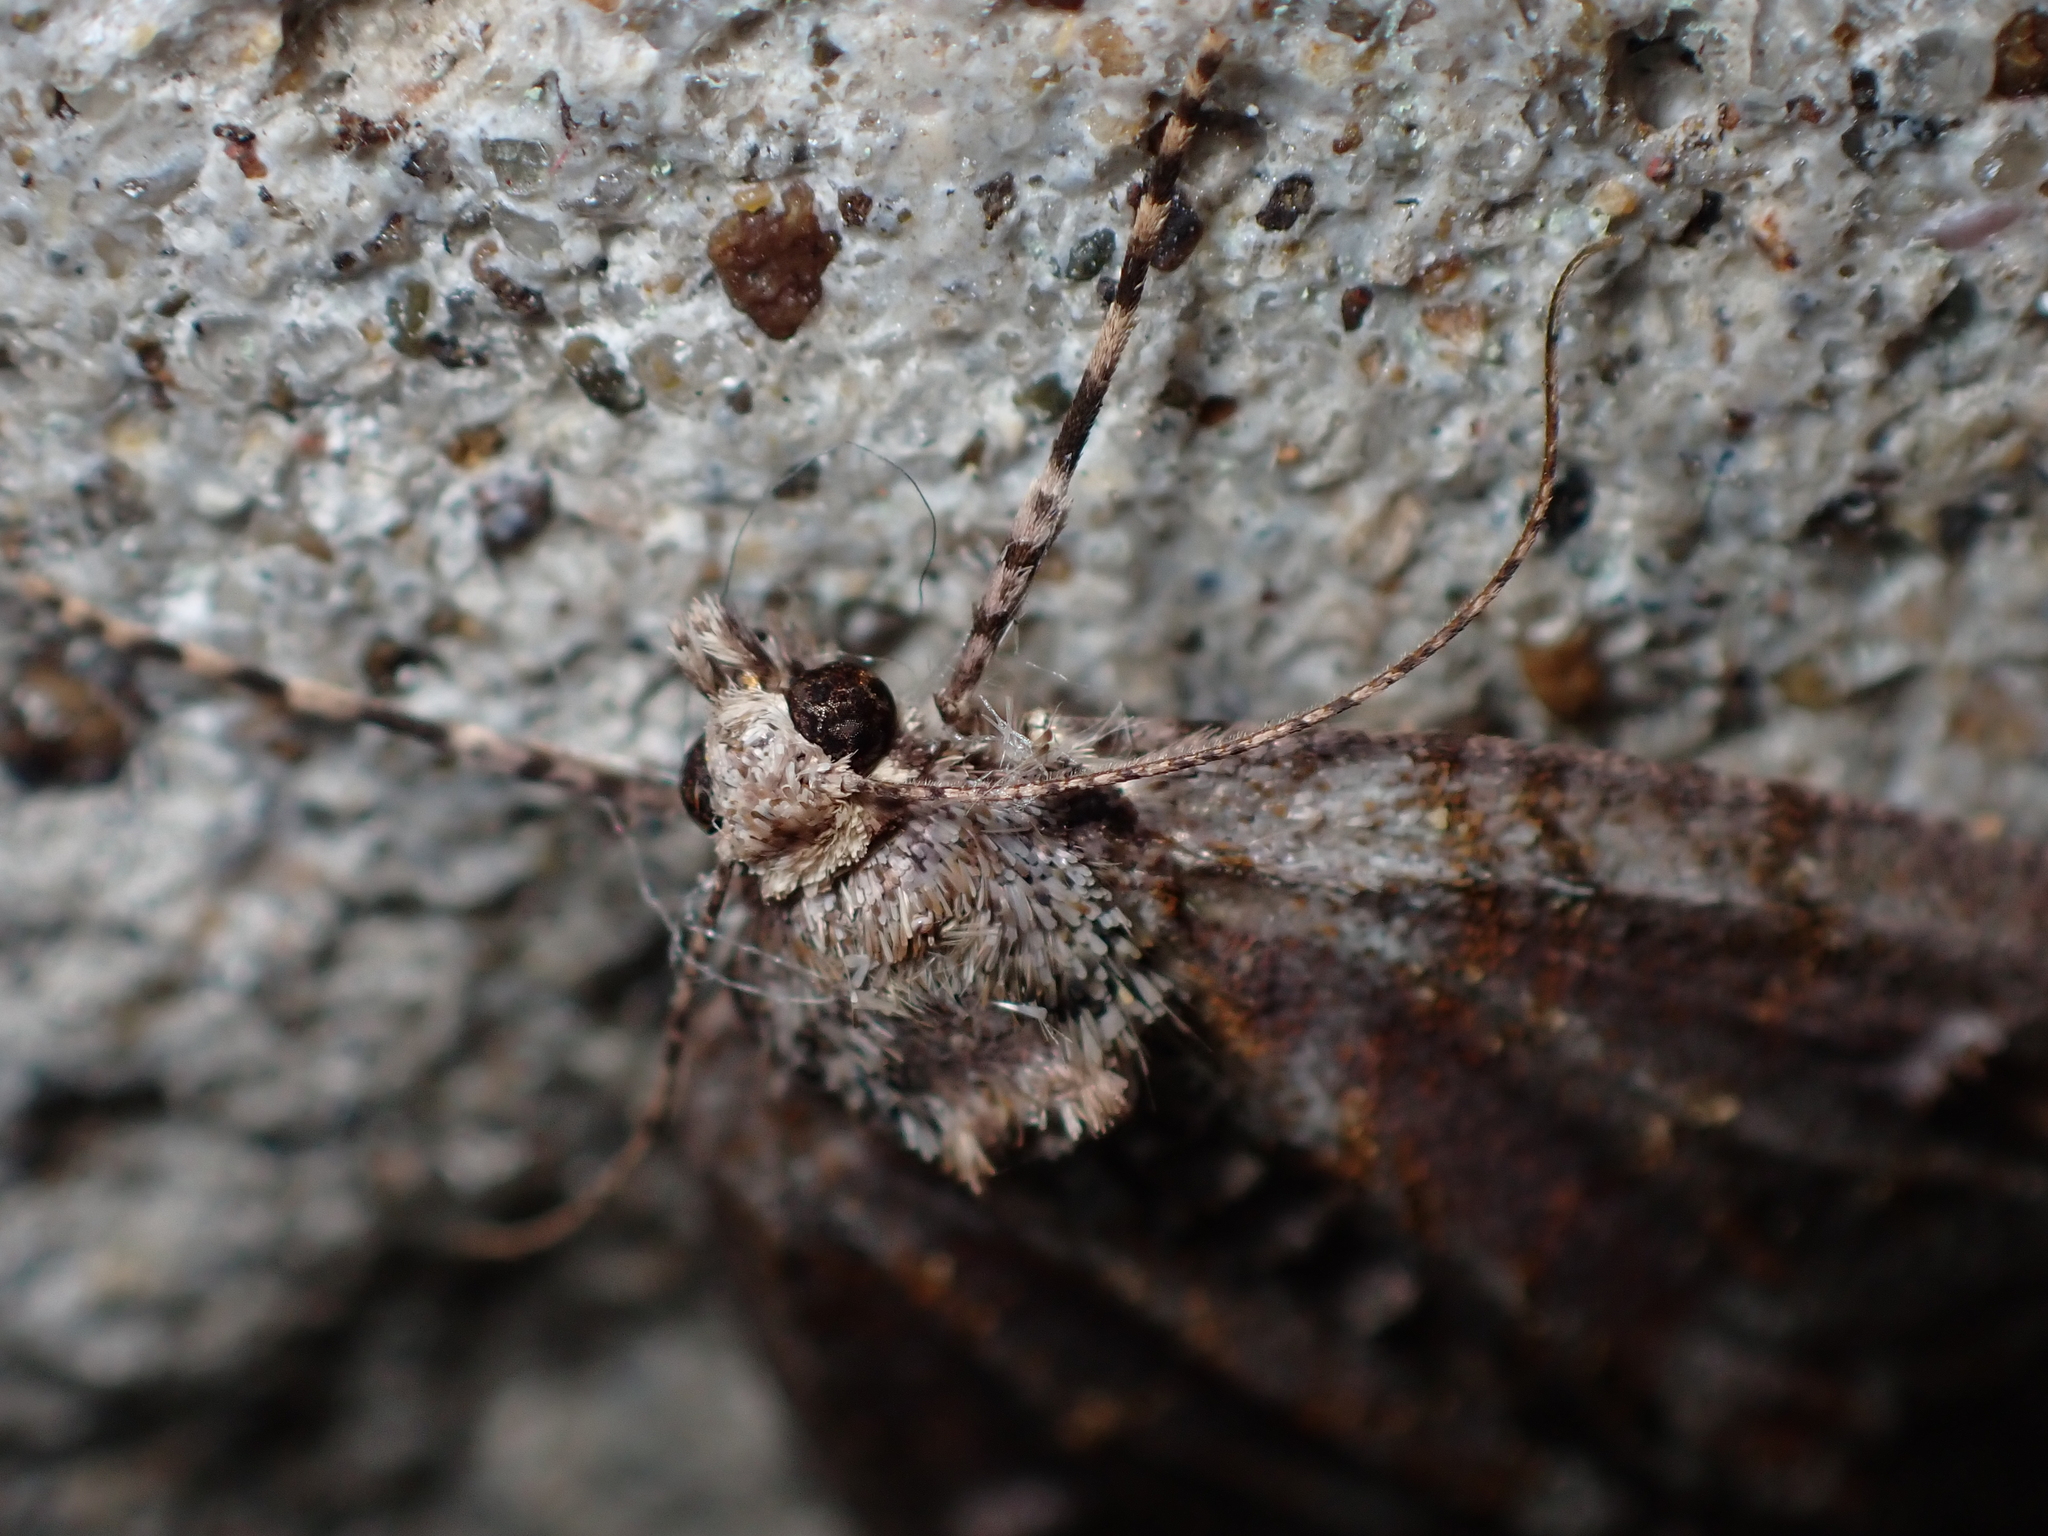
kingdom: Animalia
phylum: Arthropoda
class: Insecta
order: Lepidoptera
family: Geometridae
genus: Pseudocoremia
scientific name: Pseudocoremia suavis
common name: Common forest looper
